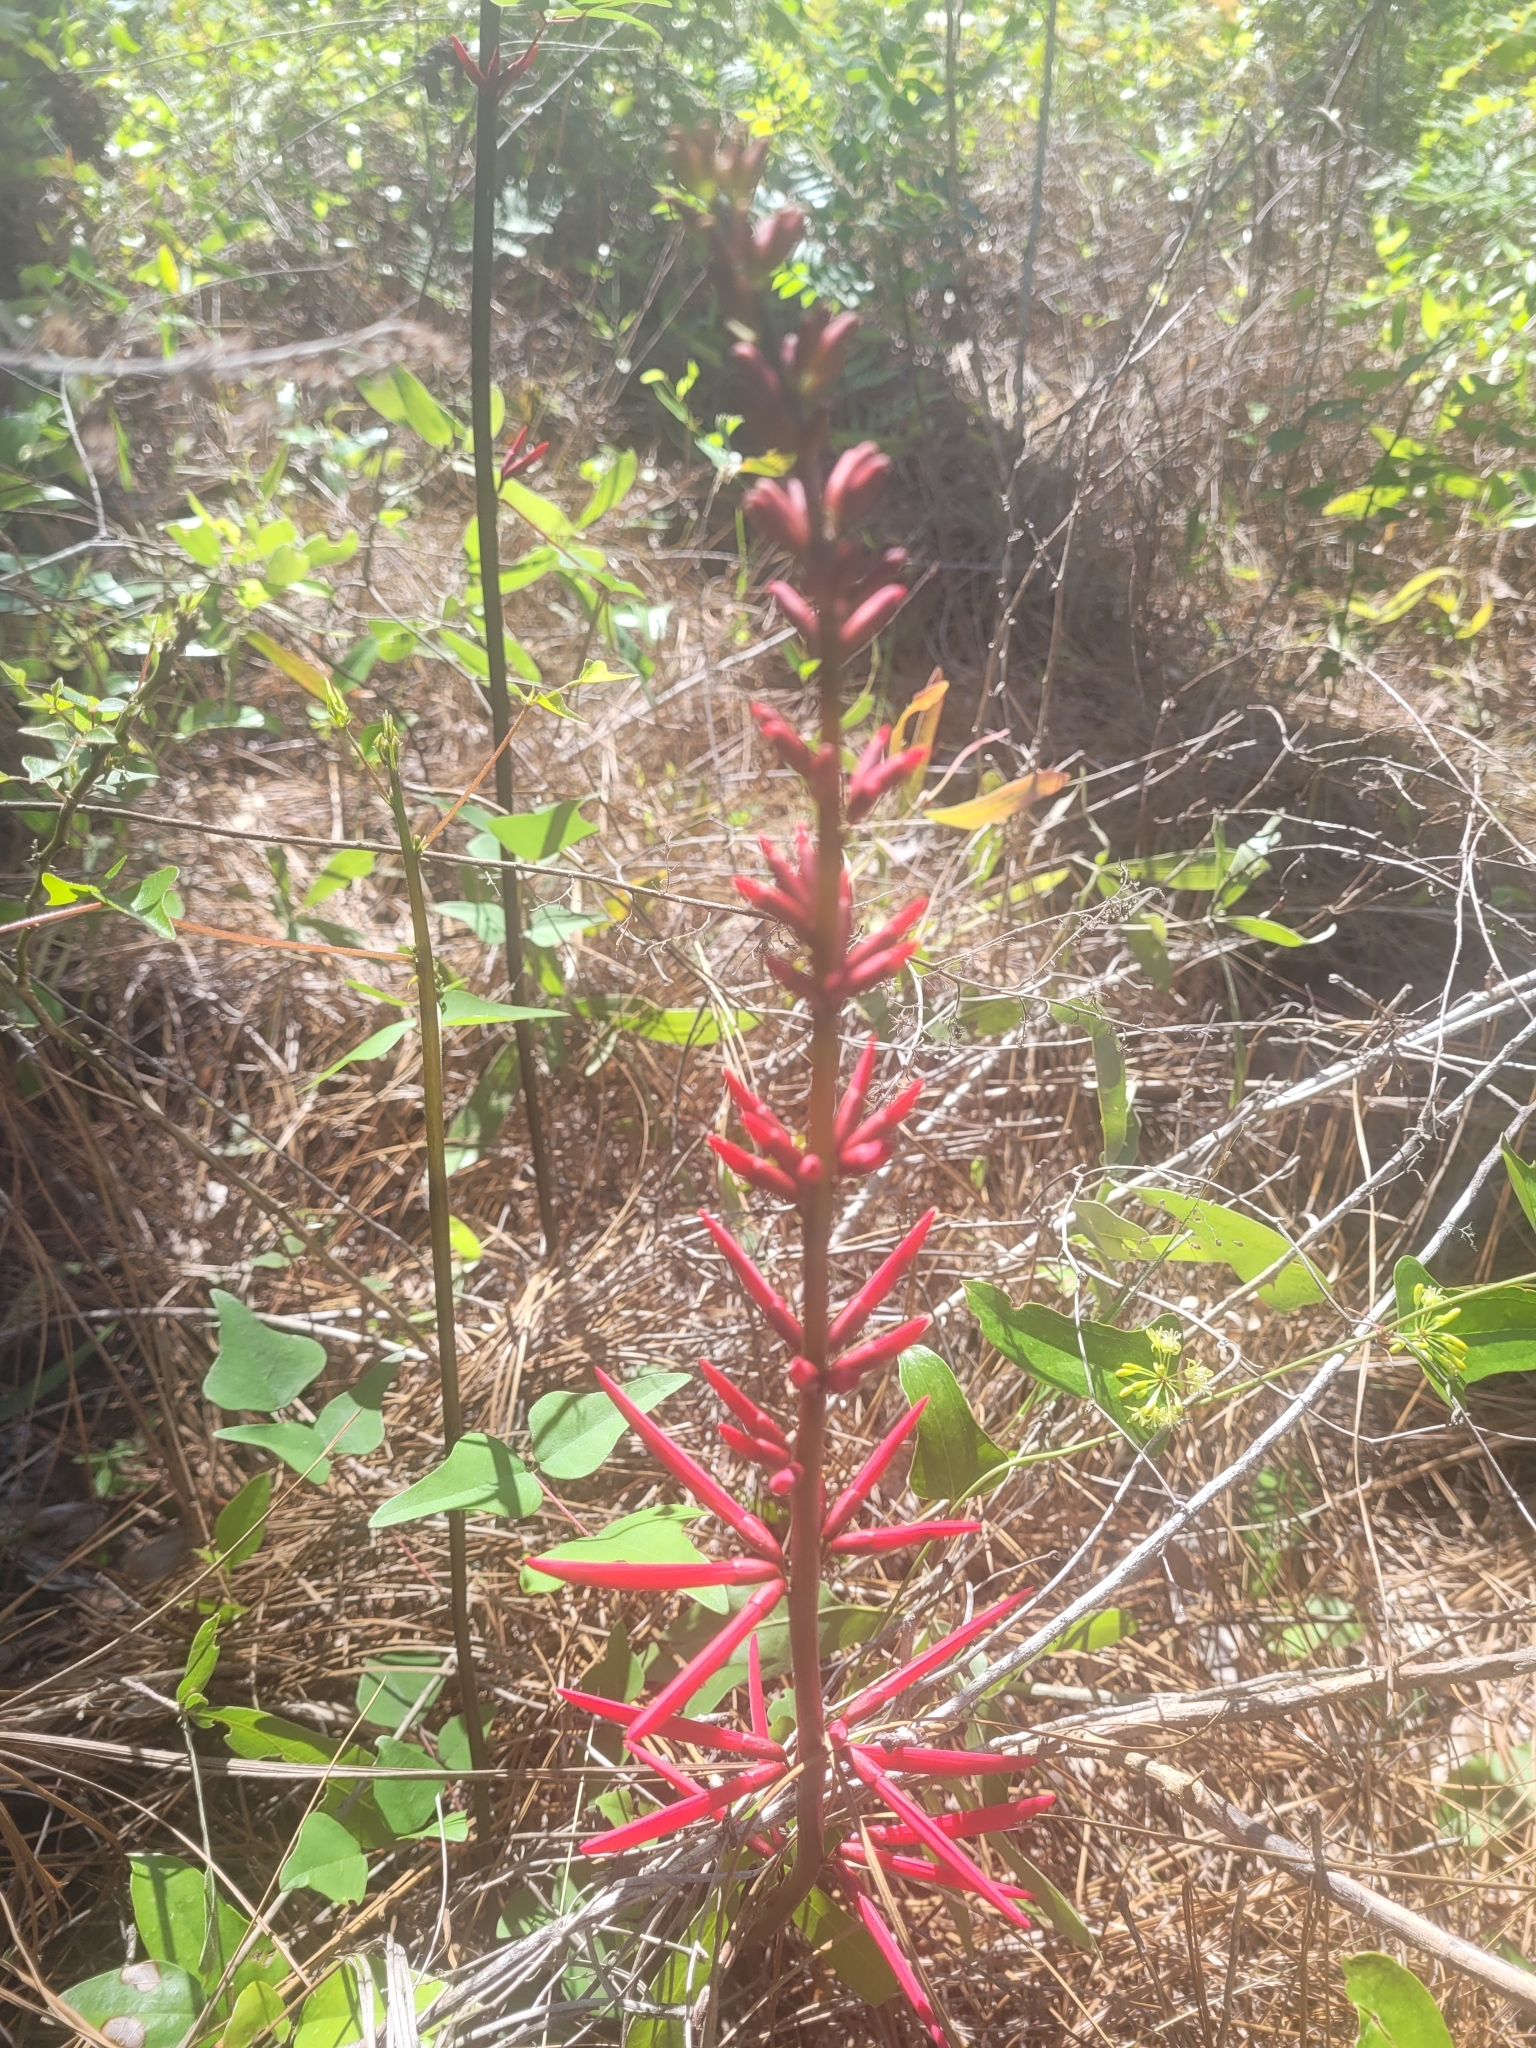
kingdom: Plantae
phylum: Tracheophyta
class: Magnoliopsida
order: Fabales
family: Fabaceae
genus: Erythrina
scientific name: Erythrina herbacea
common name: Coral-bean
